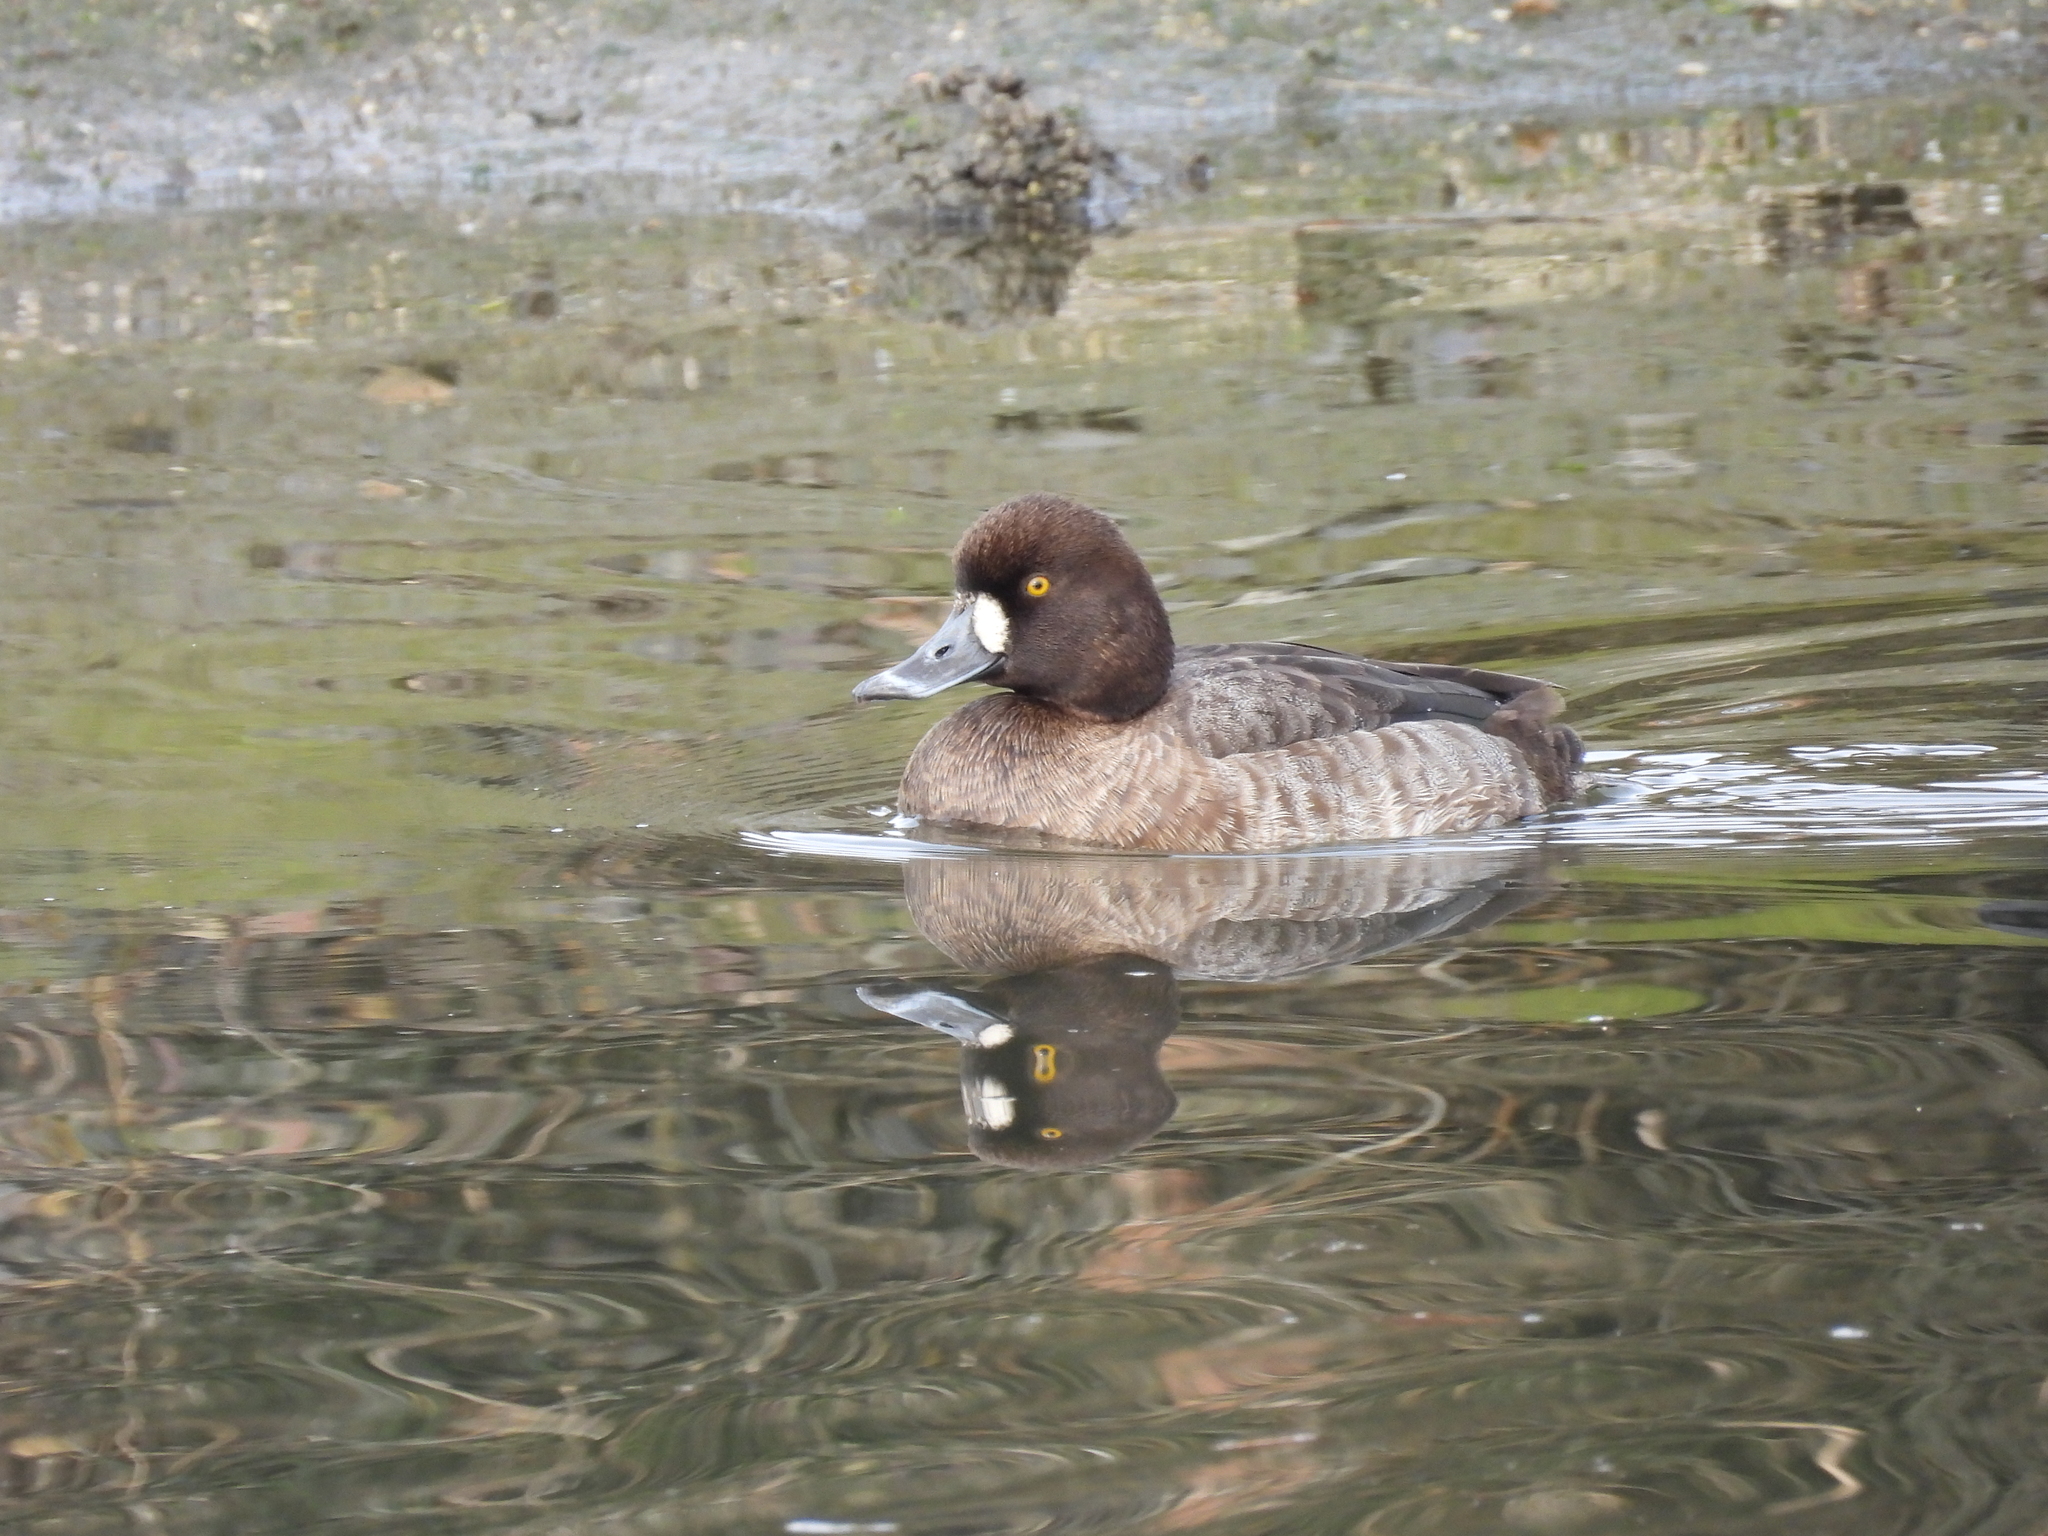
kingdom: Animalia
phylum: Chordata
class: Aves
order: Anseriformes
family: Anatidae
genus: Aythya
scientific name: Aythya marila
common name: Greater scaup
